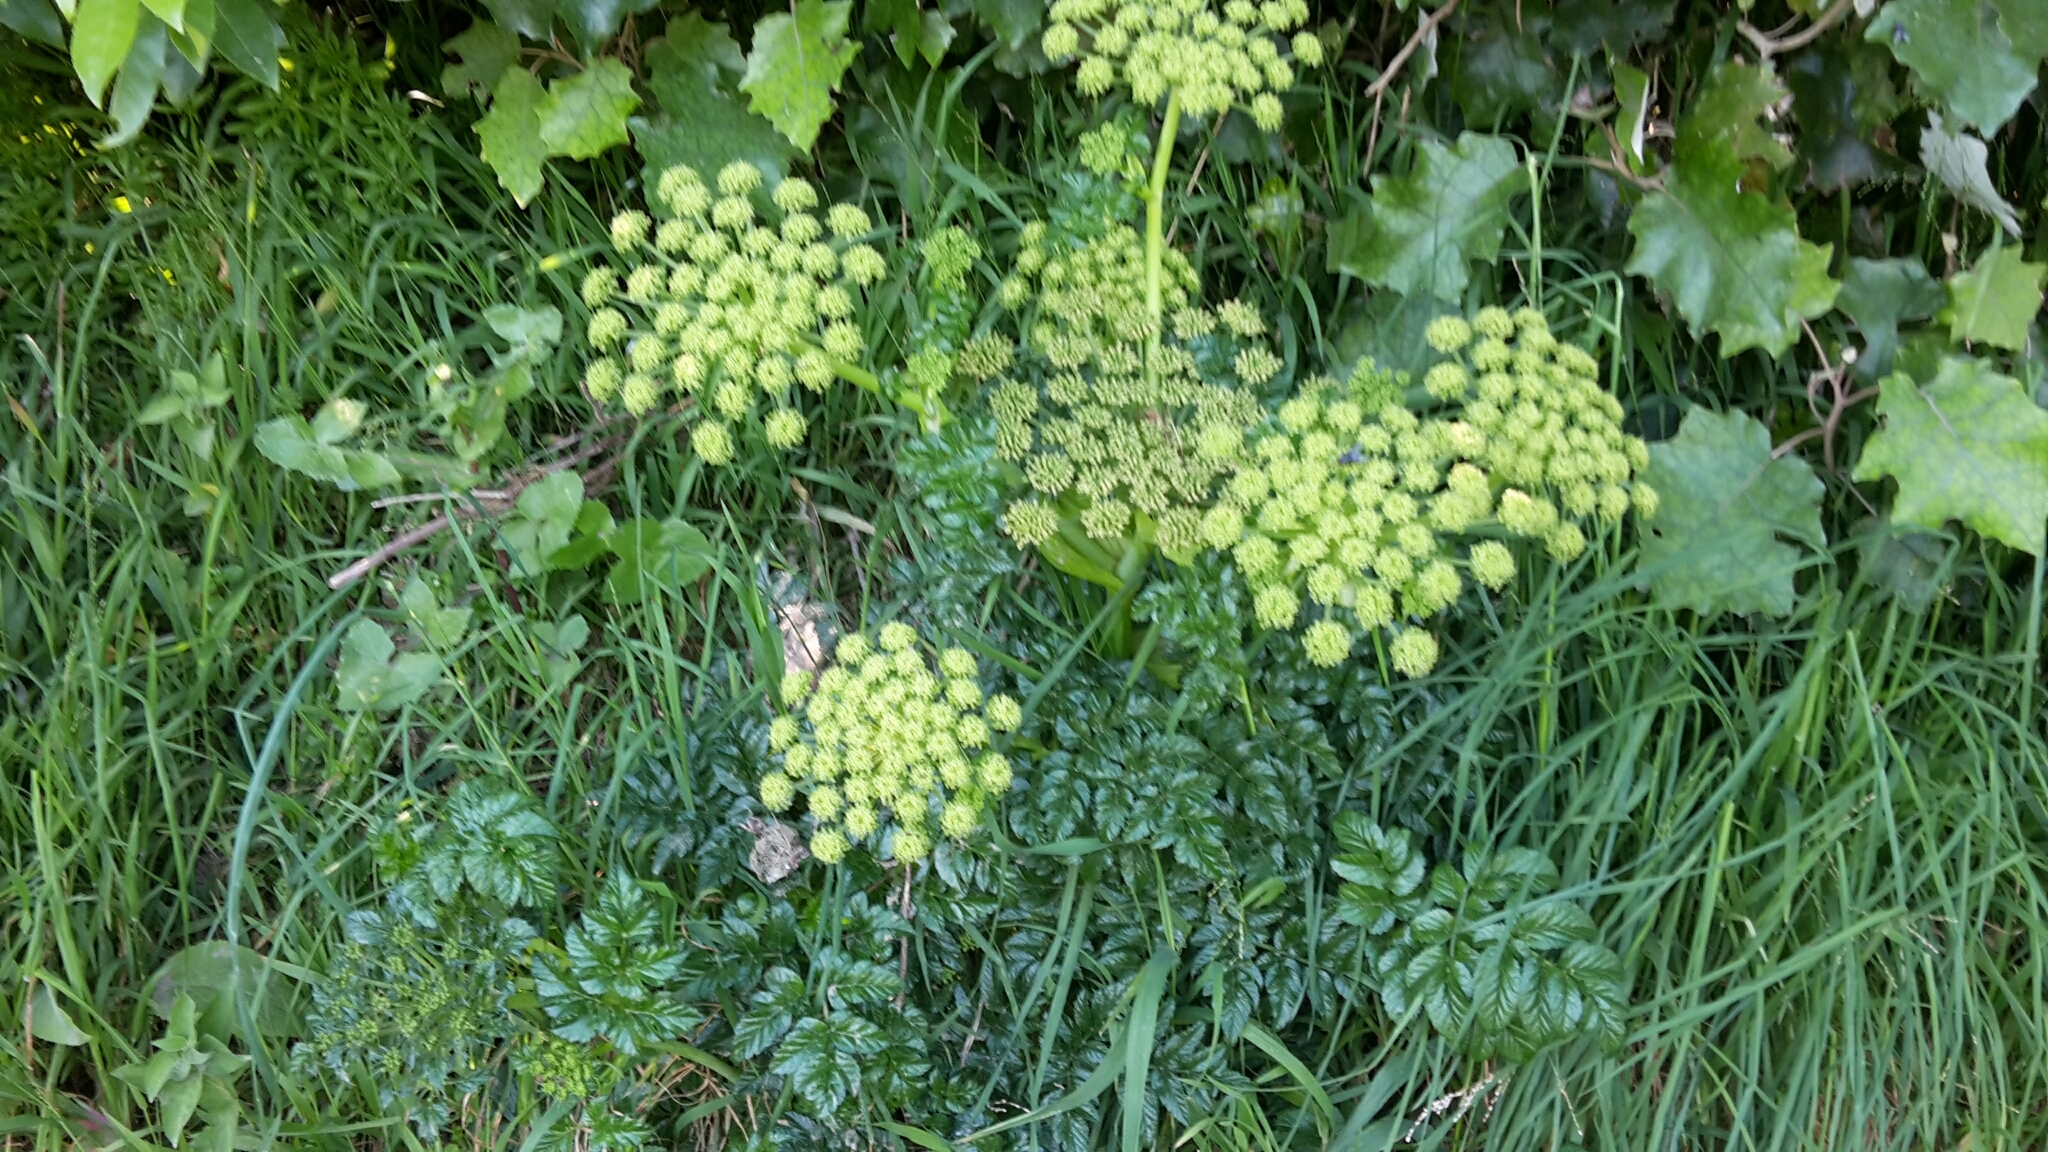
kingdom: Plantae
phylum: Tracheophyta
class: Magnoliopsida
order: Apiales
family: Apiaceae
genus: Angelica
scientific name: Angelica pachycarpa
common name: Portuguese angelica
